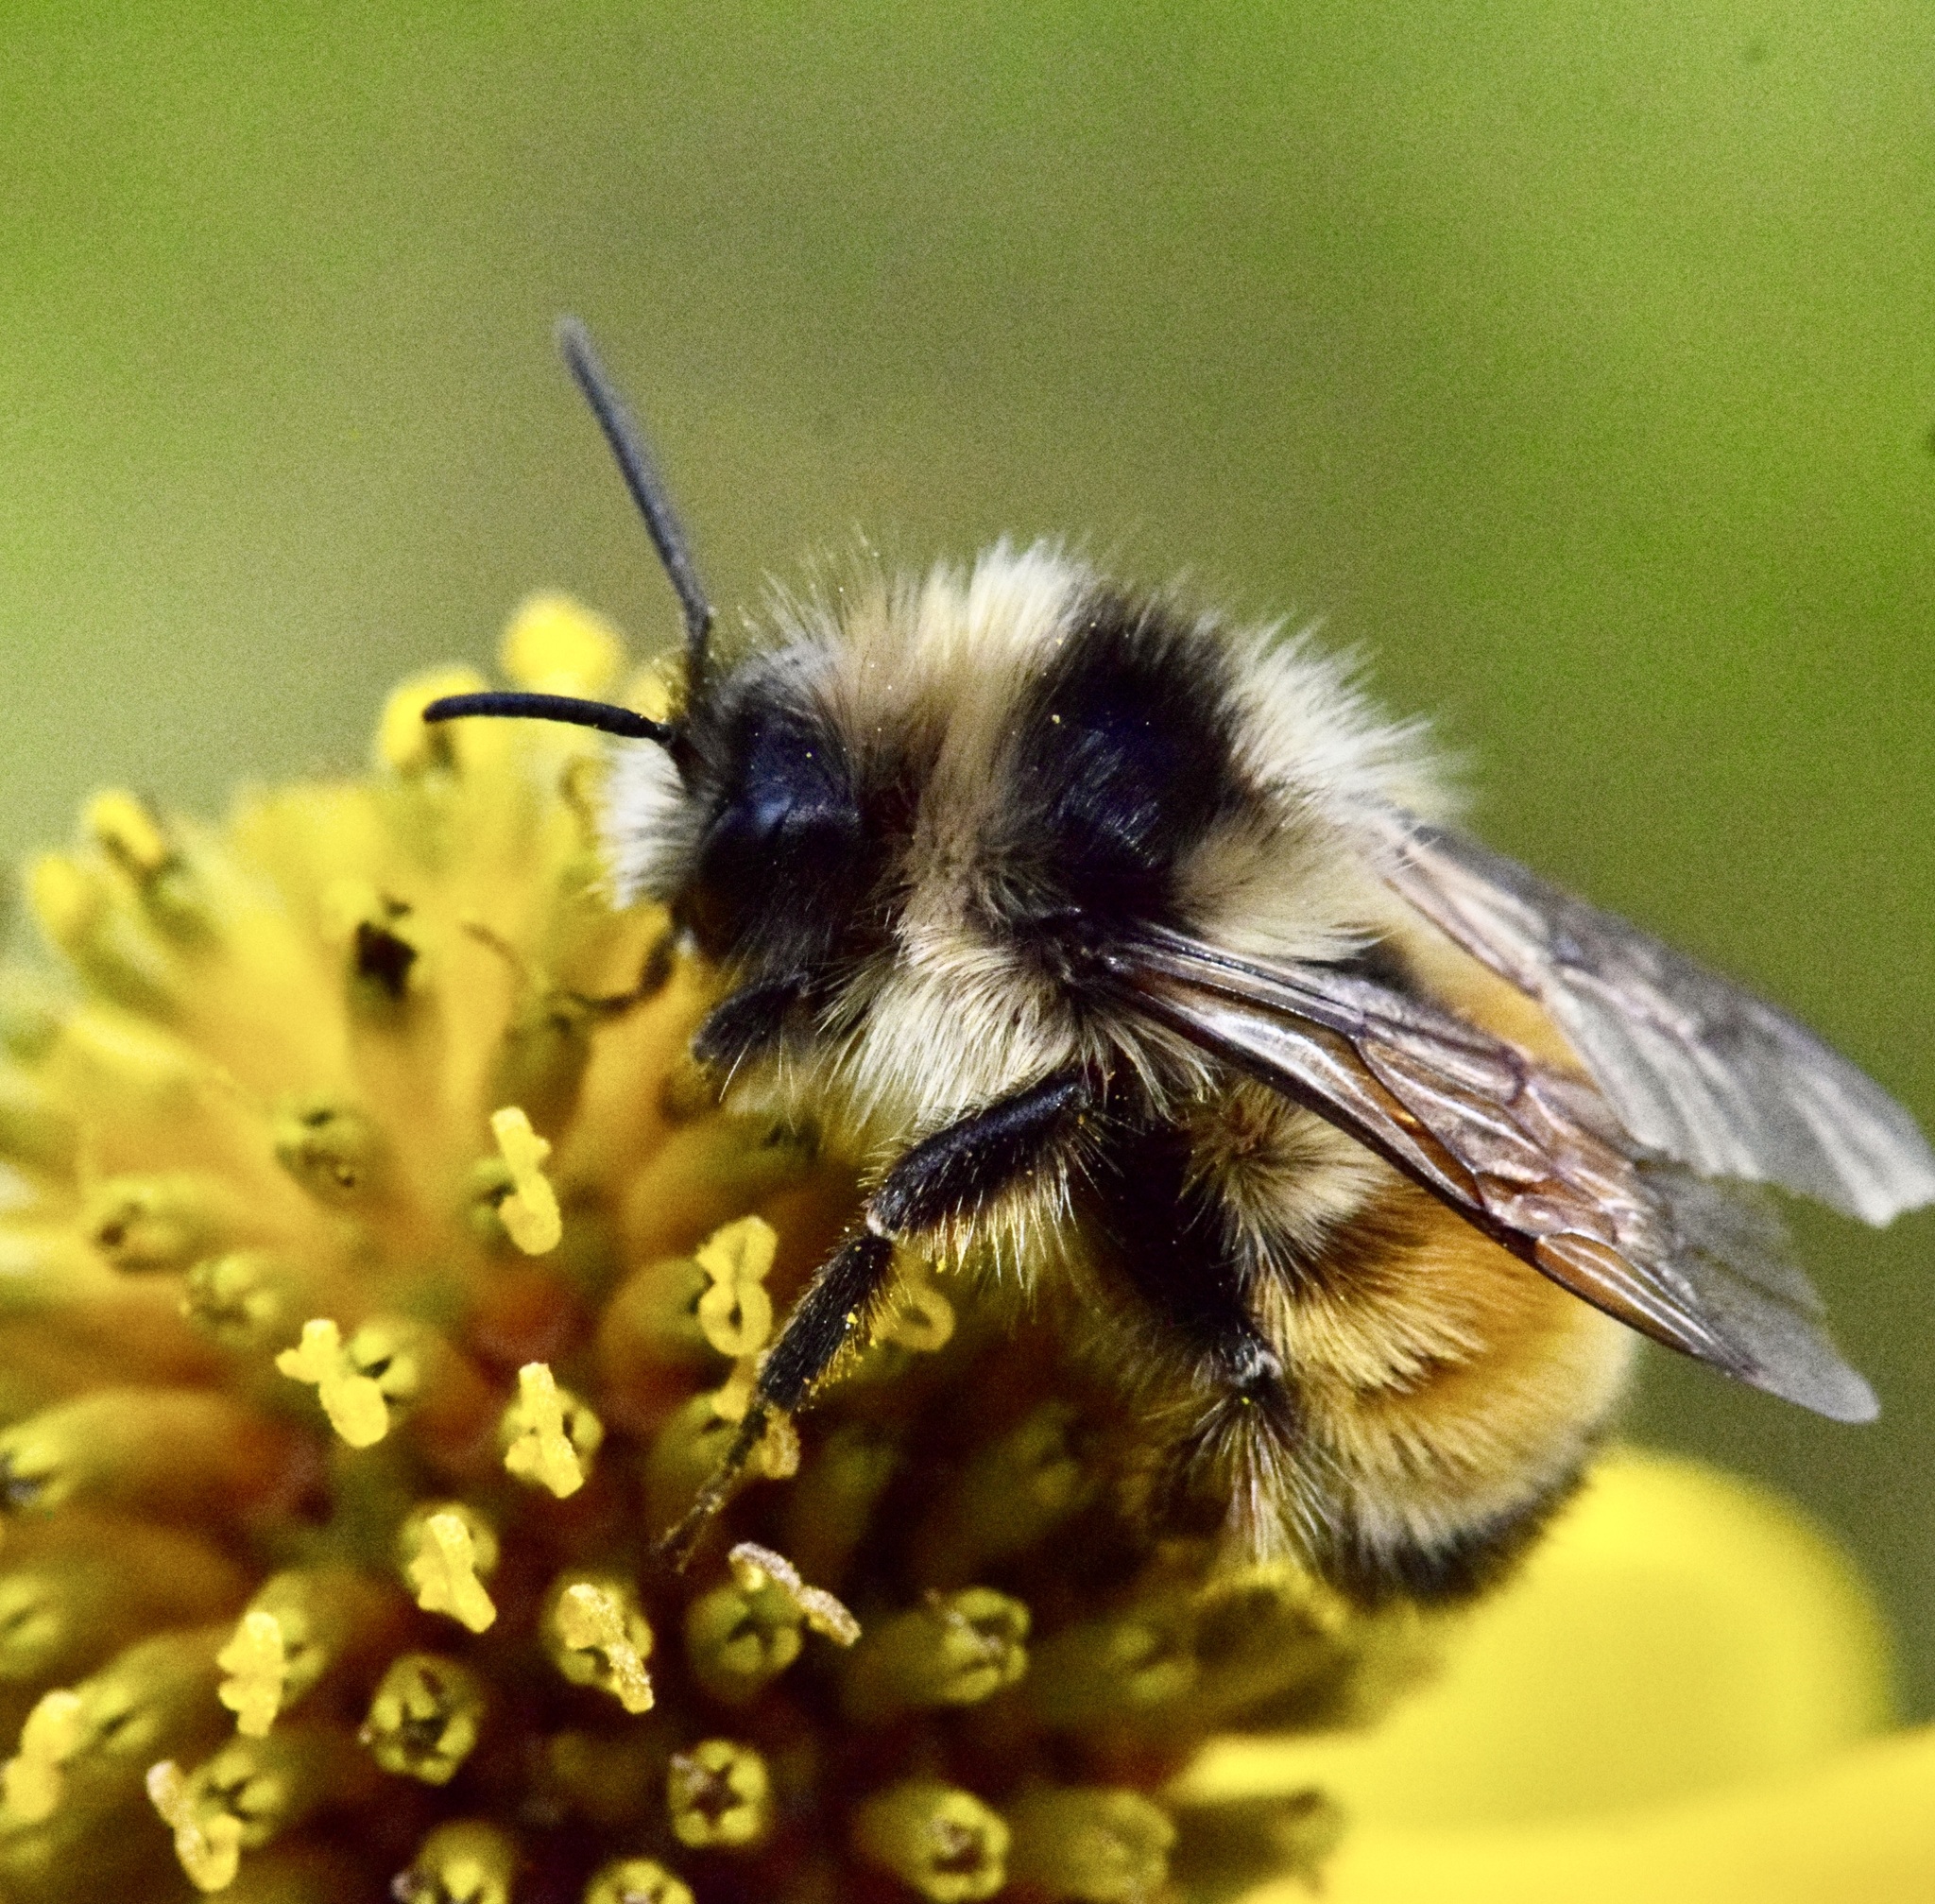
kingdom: Animalia
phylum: Arthropoda
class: Insecta
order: Hymenoptera
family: Apidae
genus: Bombus
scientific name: Bombus ternarius
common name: Tri-colored bumble bee
